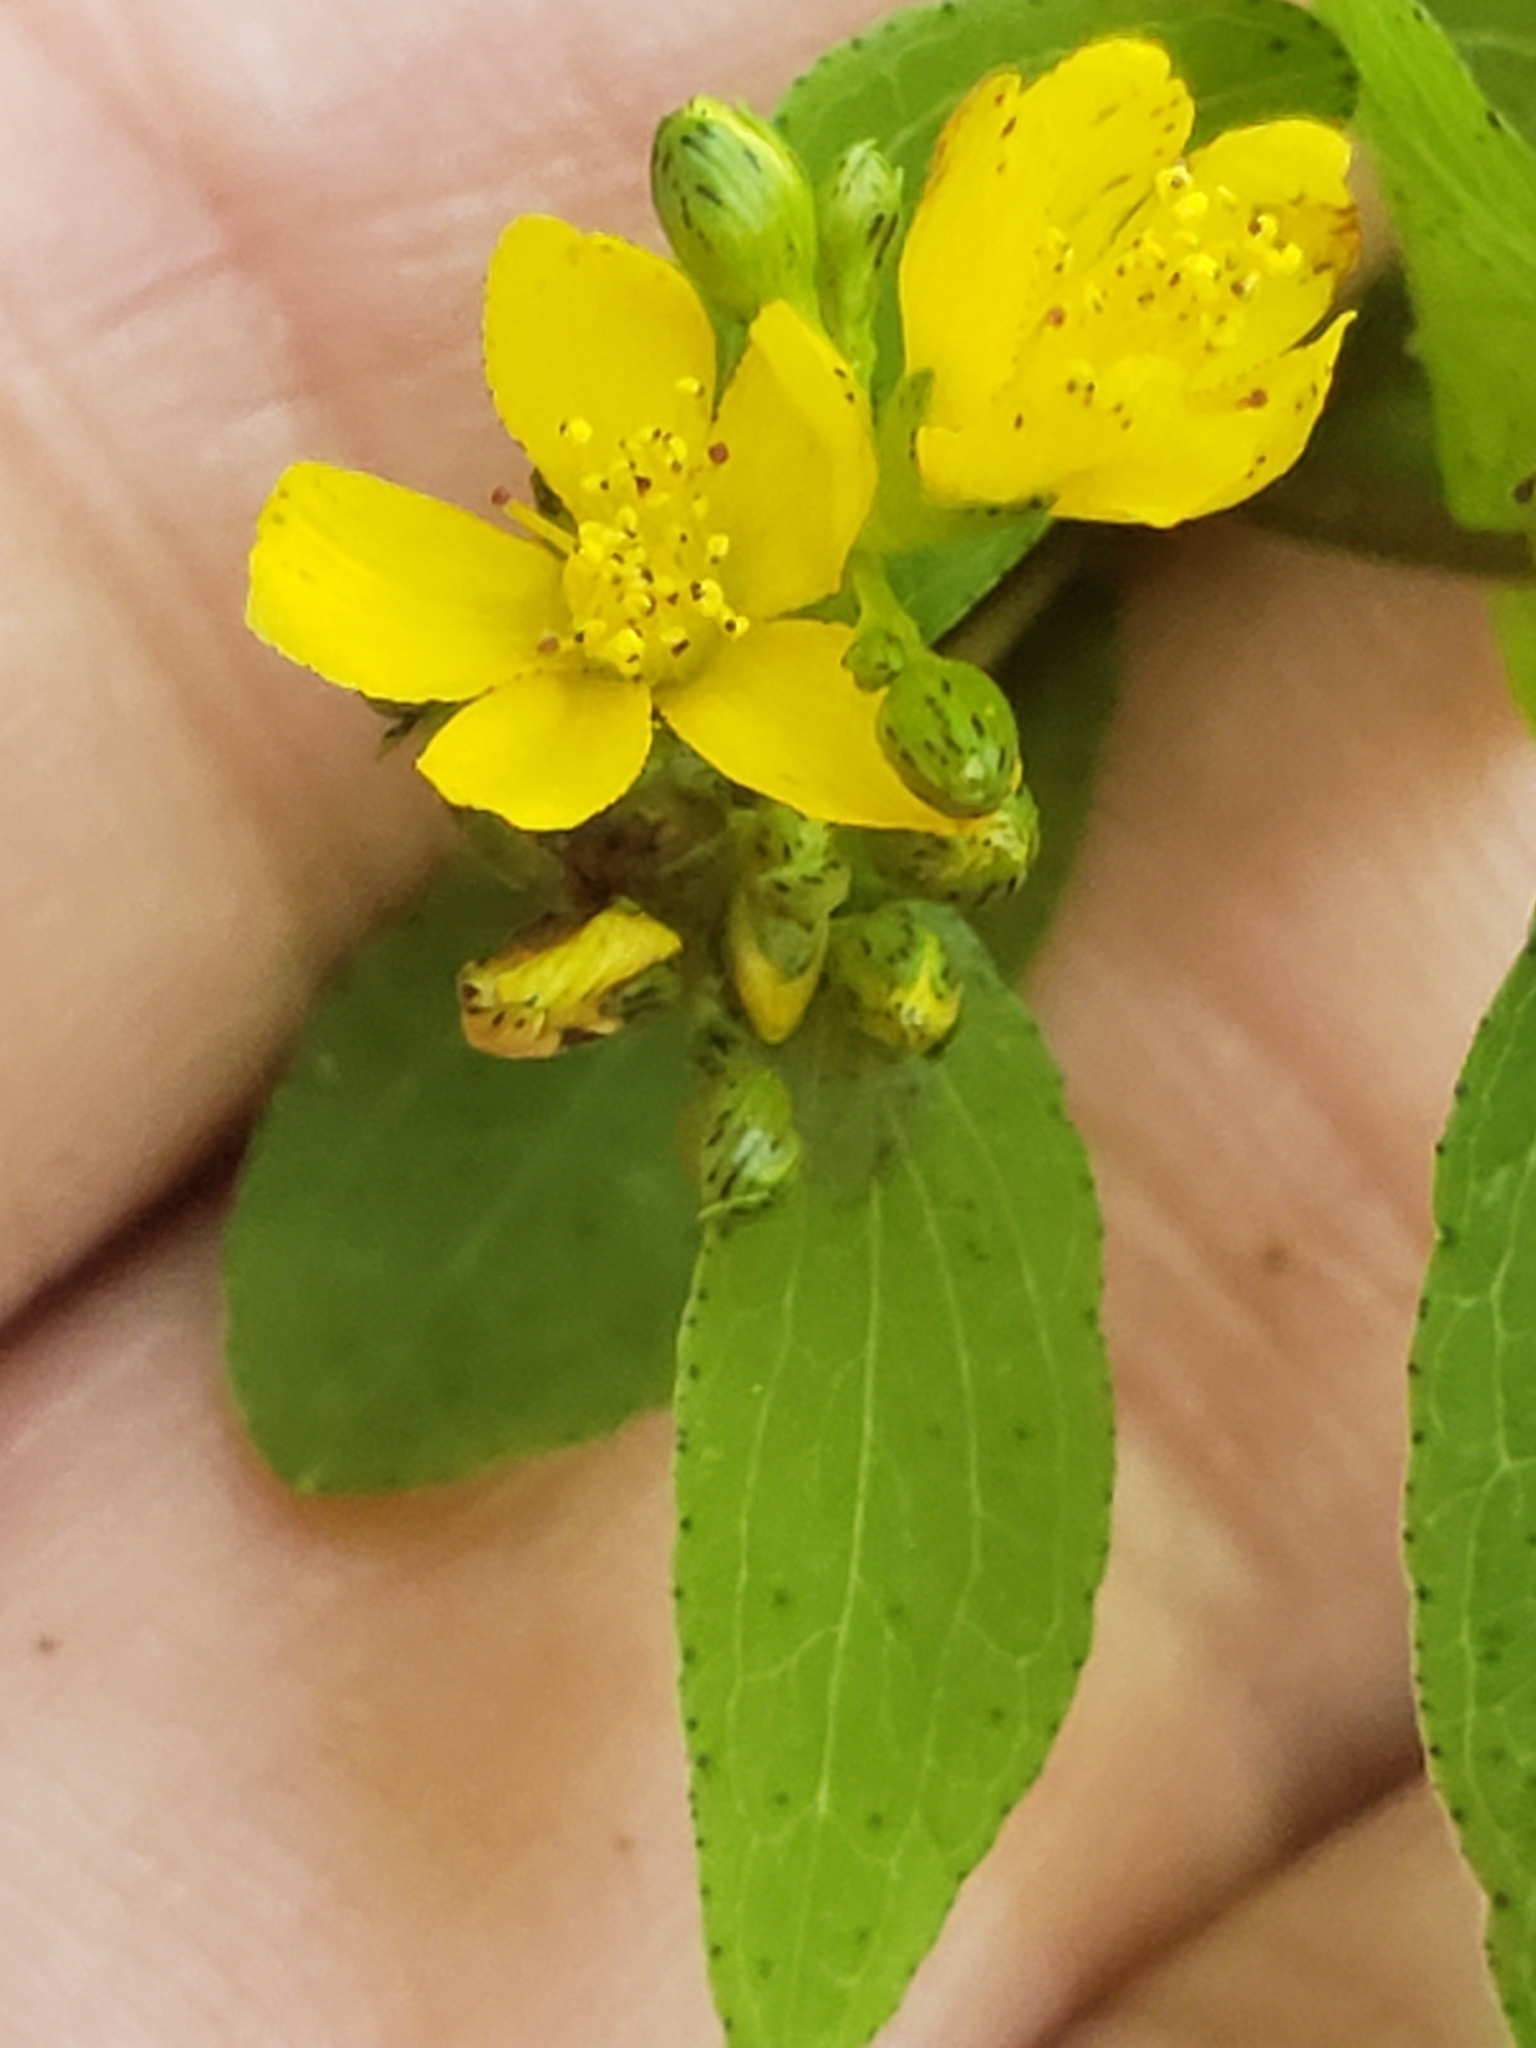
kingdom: Plantae
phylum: Tracheophyta
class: Magnoliopsida
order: Malpighiales
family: Hypericaceae
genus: Hypericum
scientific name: Hypericum punctatum
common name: Spotted st. john's-wort
